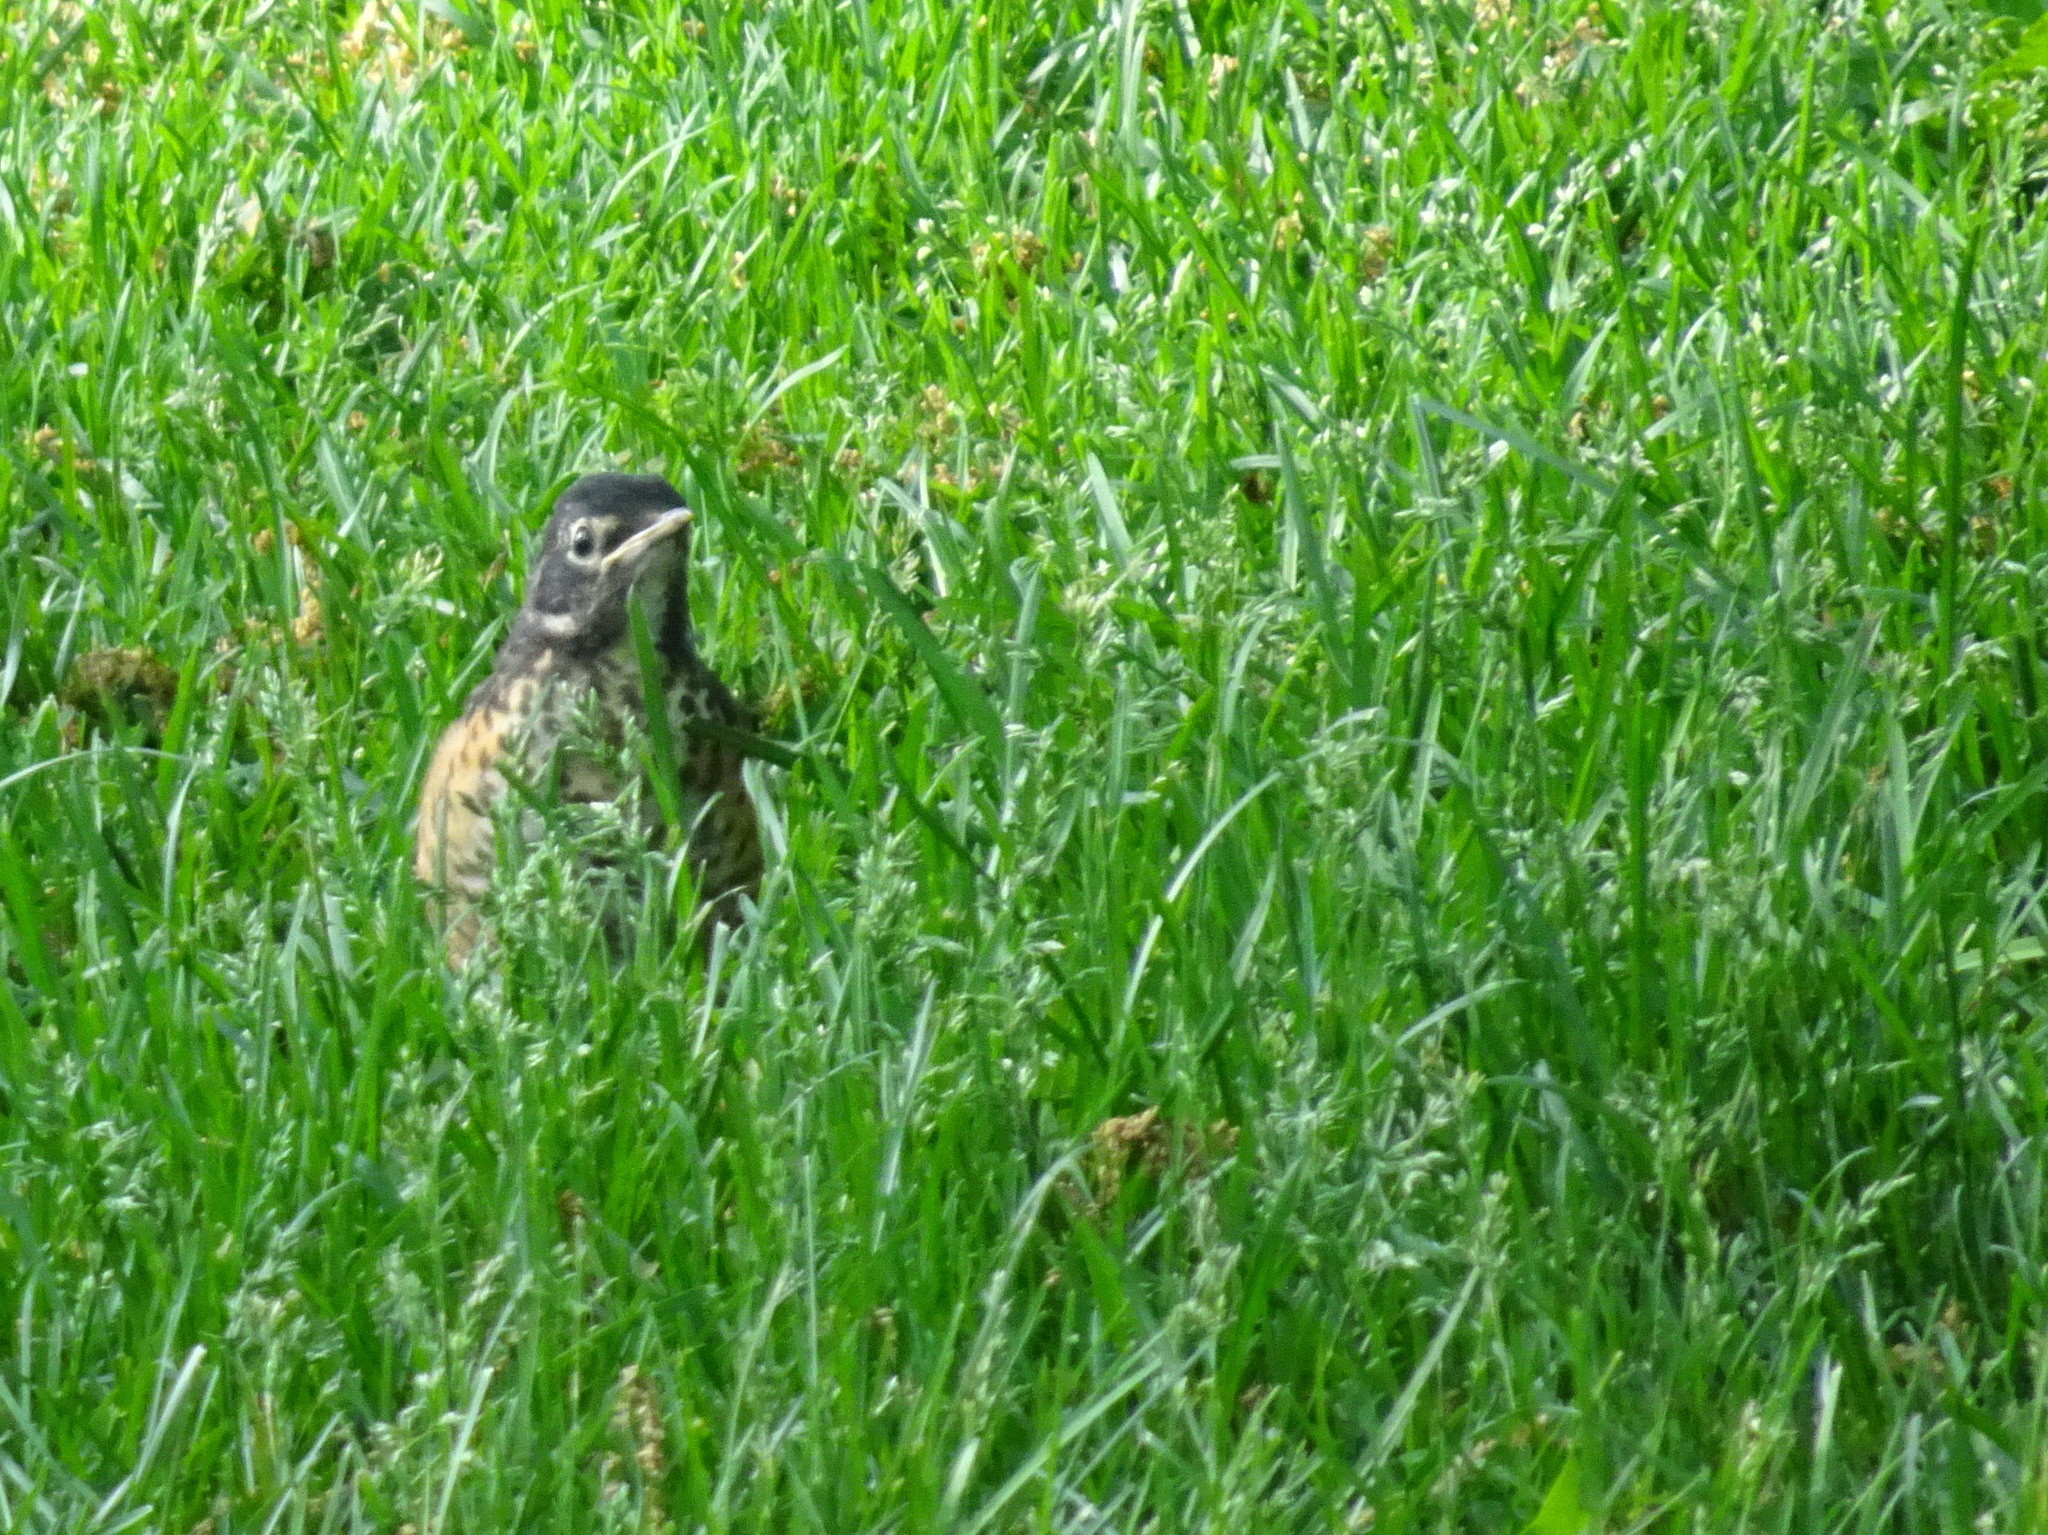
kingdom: Animalia
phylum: Chordata
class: Aves
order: Passeriformes
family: Turdidae
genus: Turdus
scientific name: Turdus migratorius
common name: American robin
